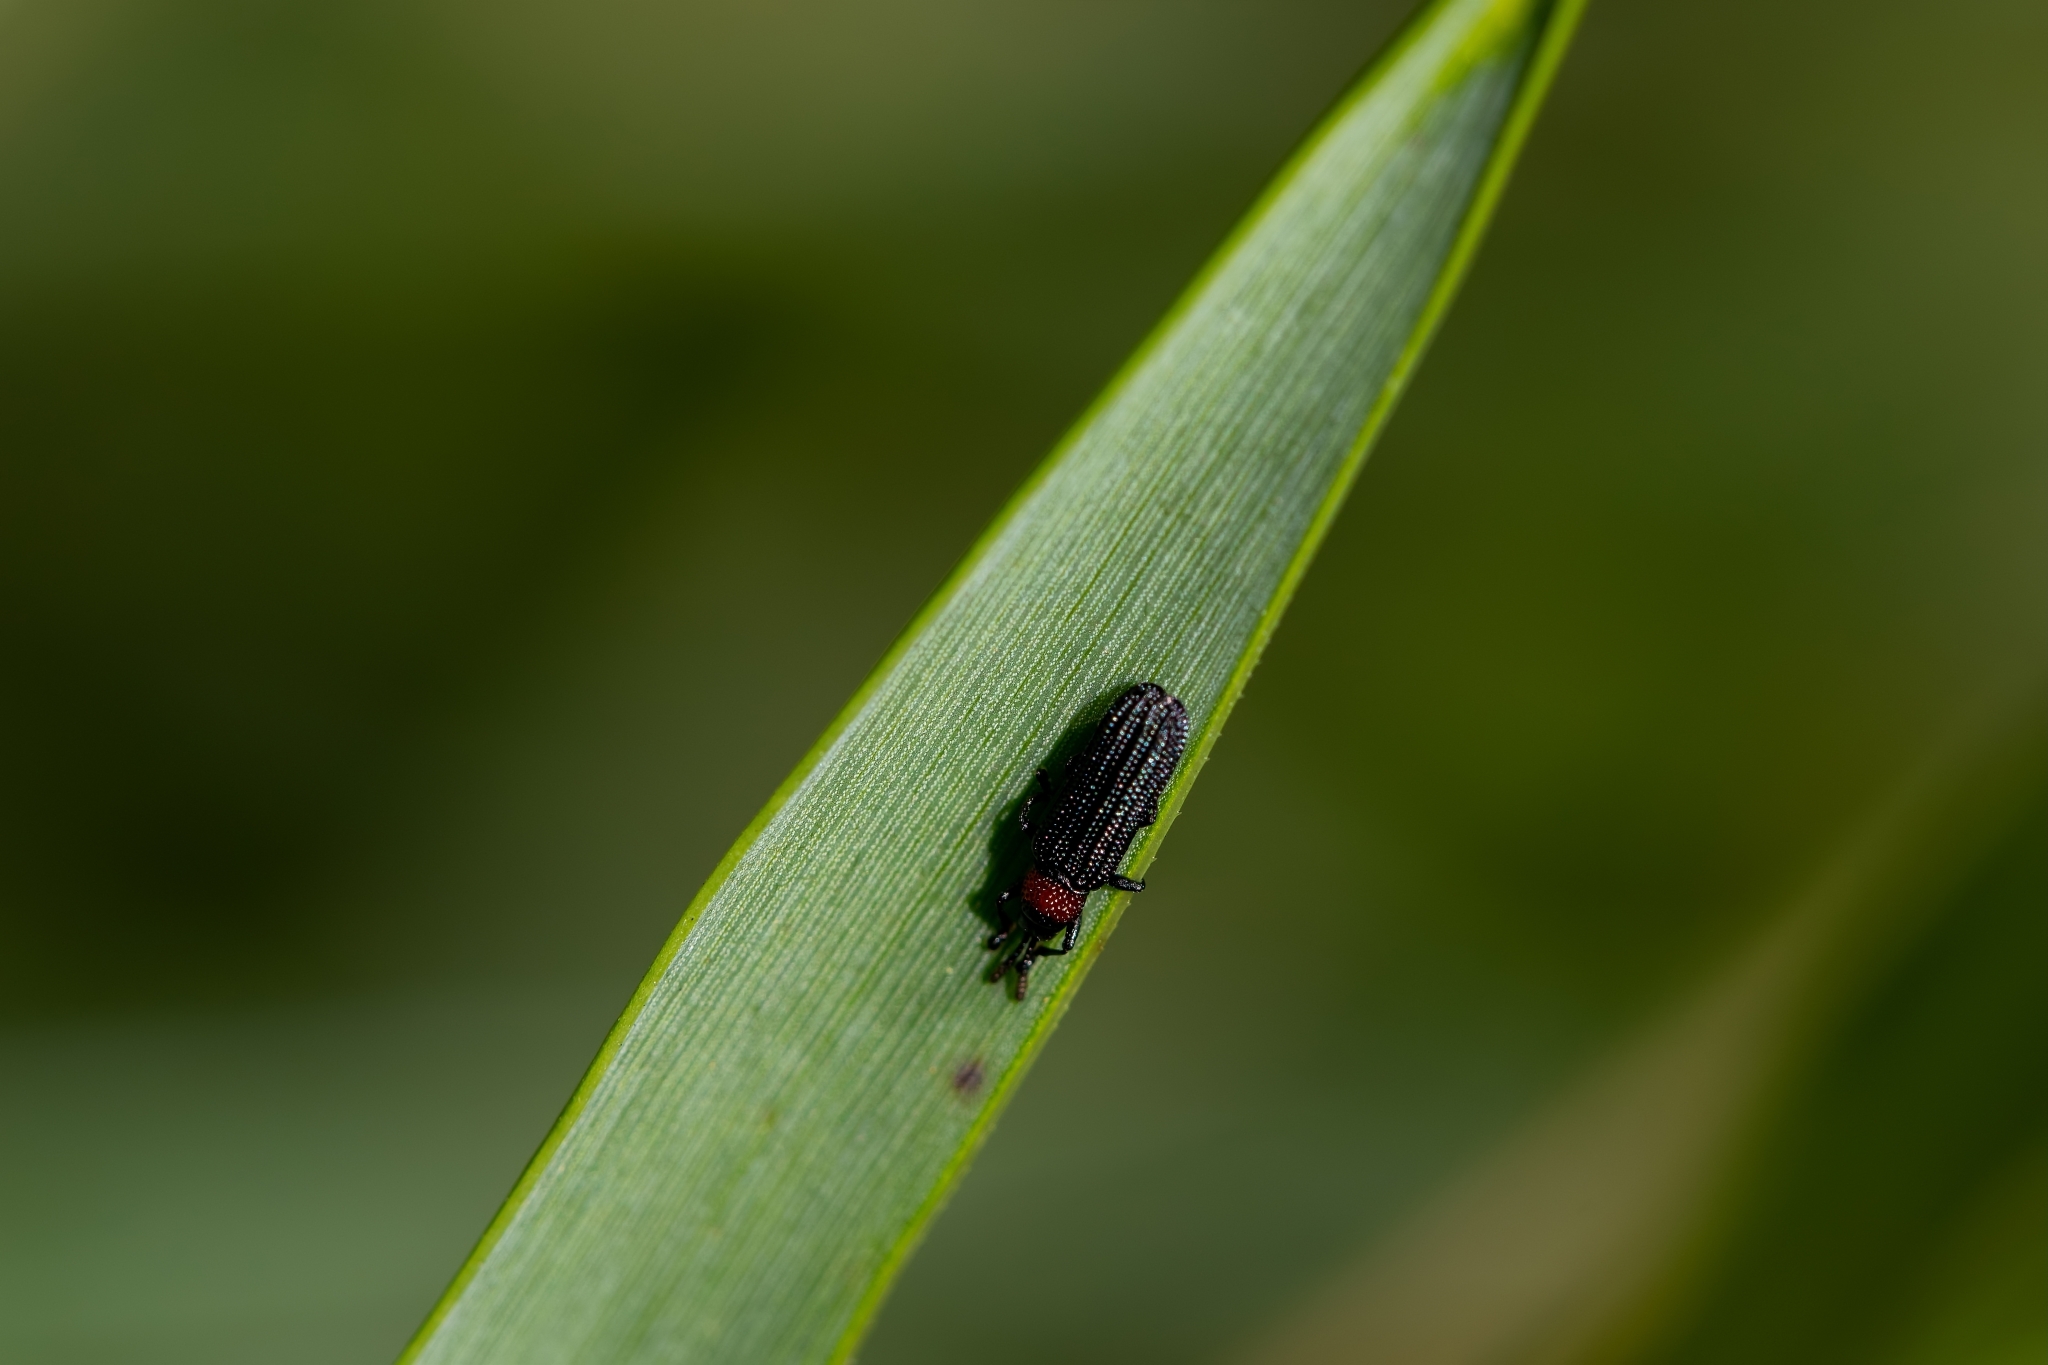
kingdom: Animalia
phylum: Arthropoda
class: Insecta
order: Coleoptera
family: Chrysomelidae
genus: Anisostena
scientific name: Anisostena ariadne
